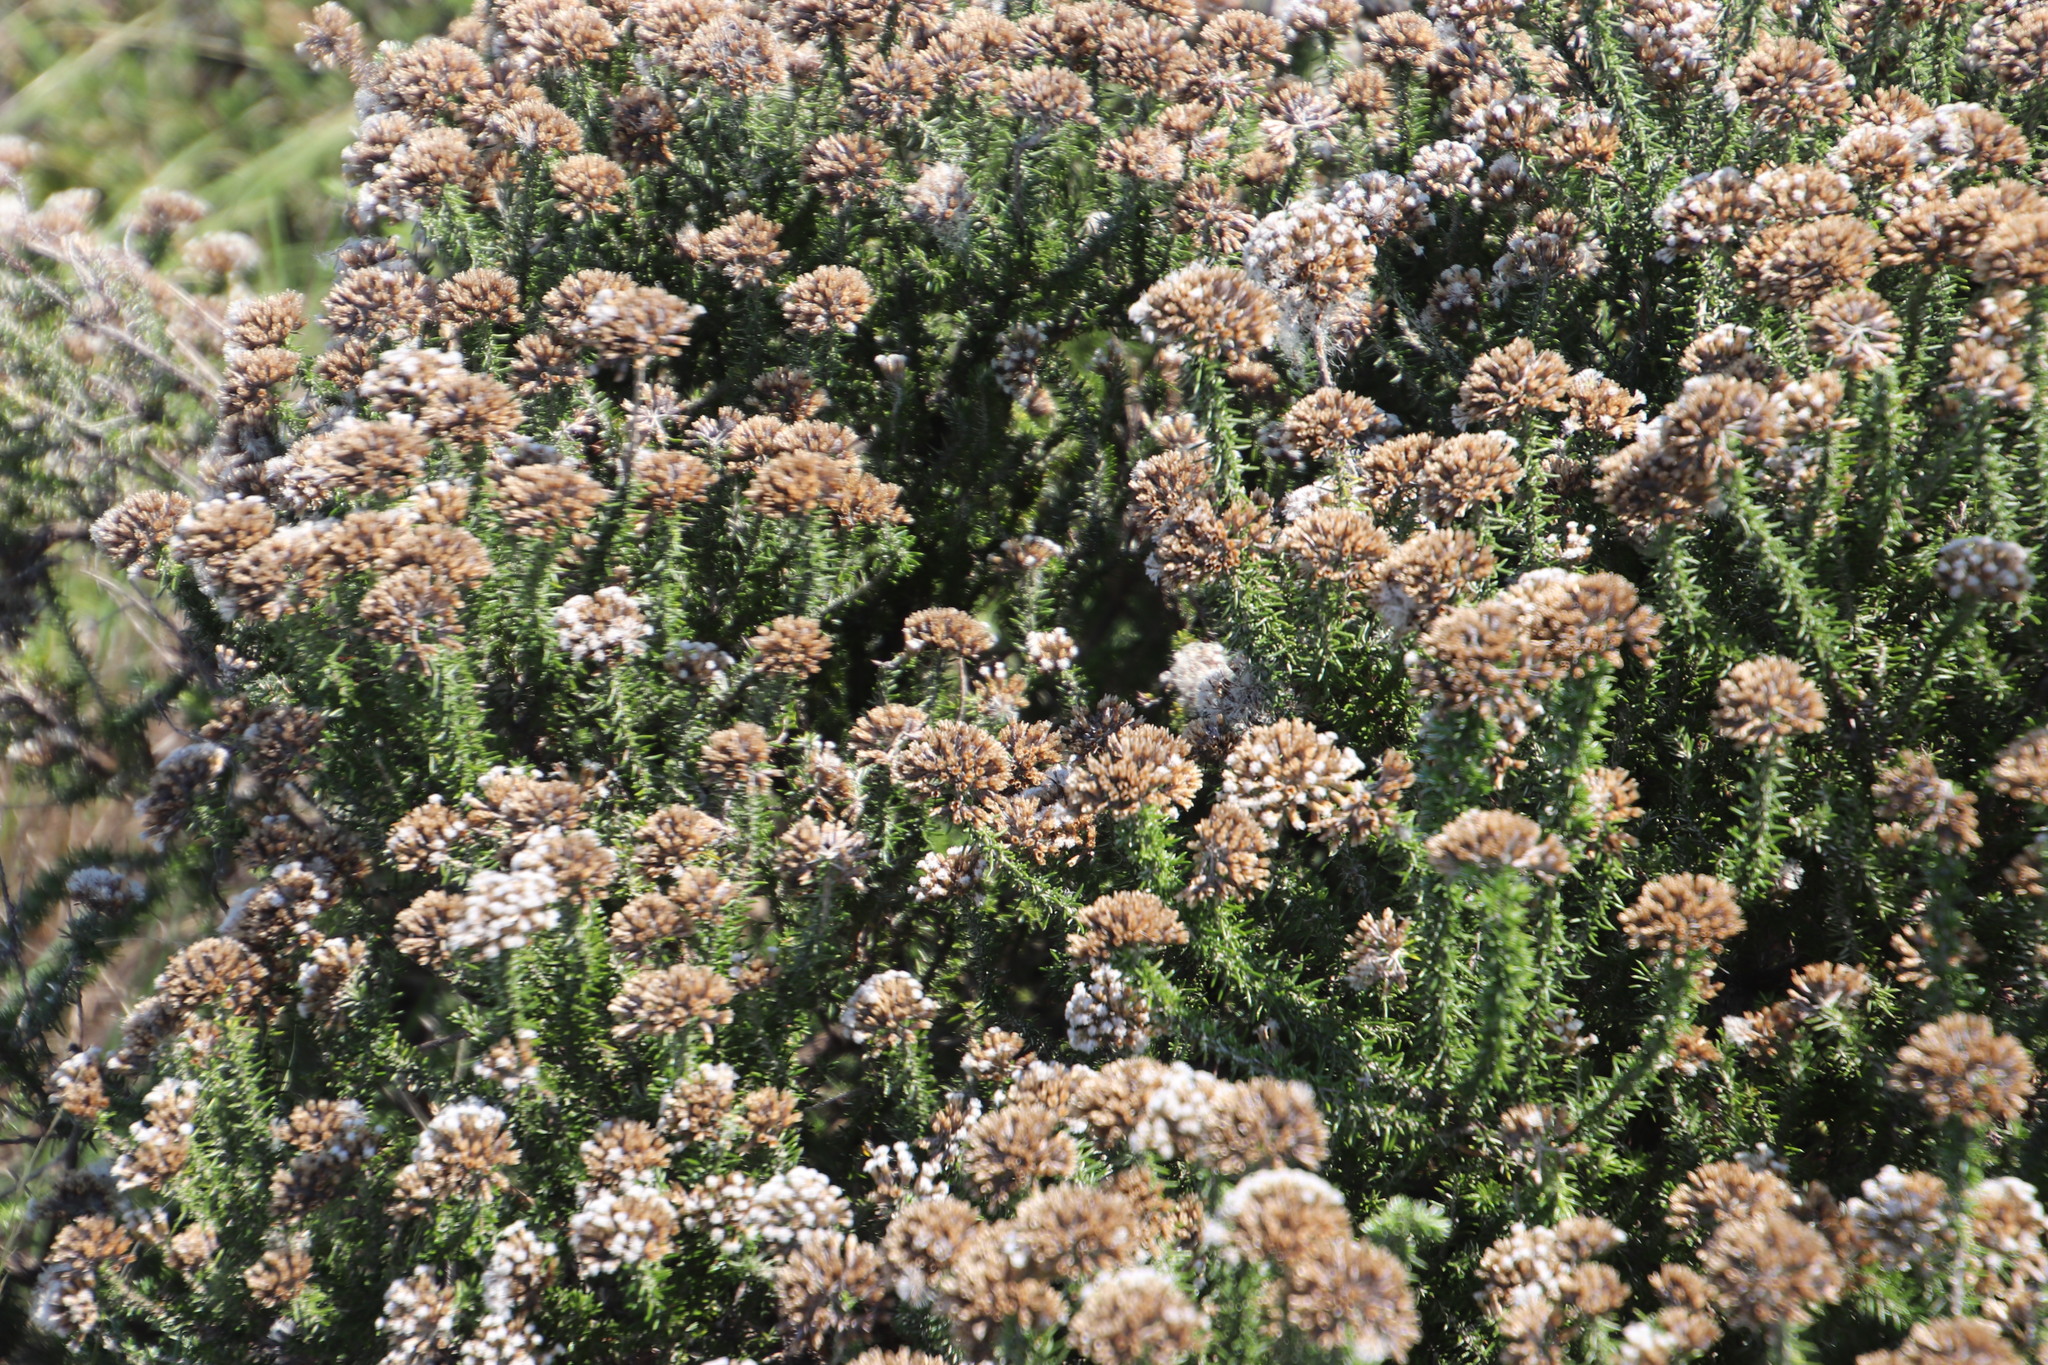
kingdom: Plantae
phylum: Tracheophyta
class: Magnoliopsida
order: Asterales
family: Asteraceae
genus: Metalasia
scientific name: Metalasia muricata
